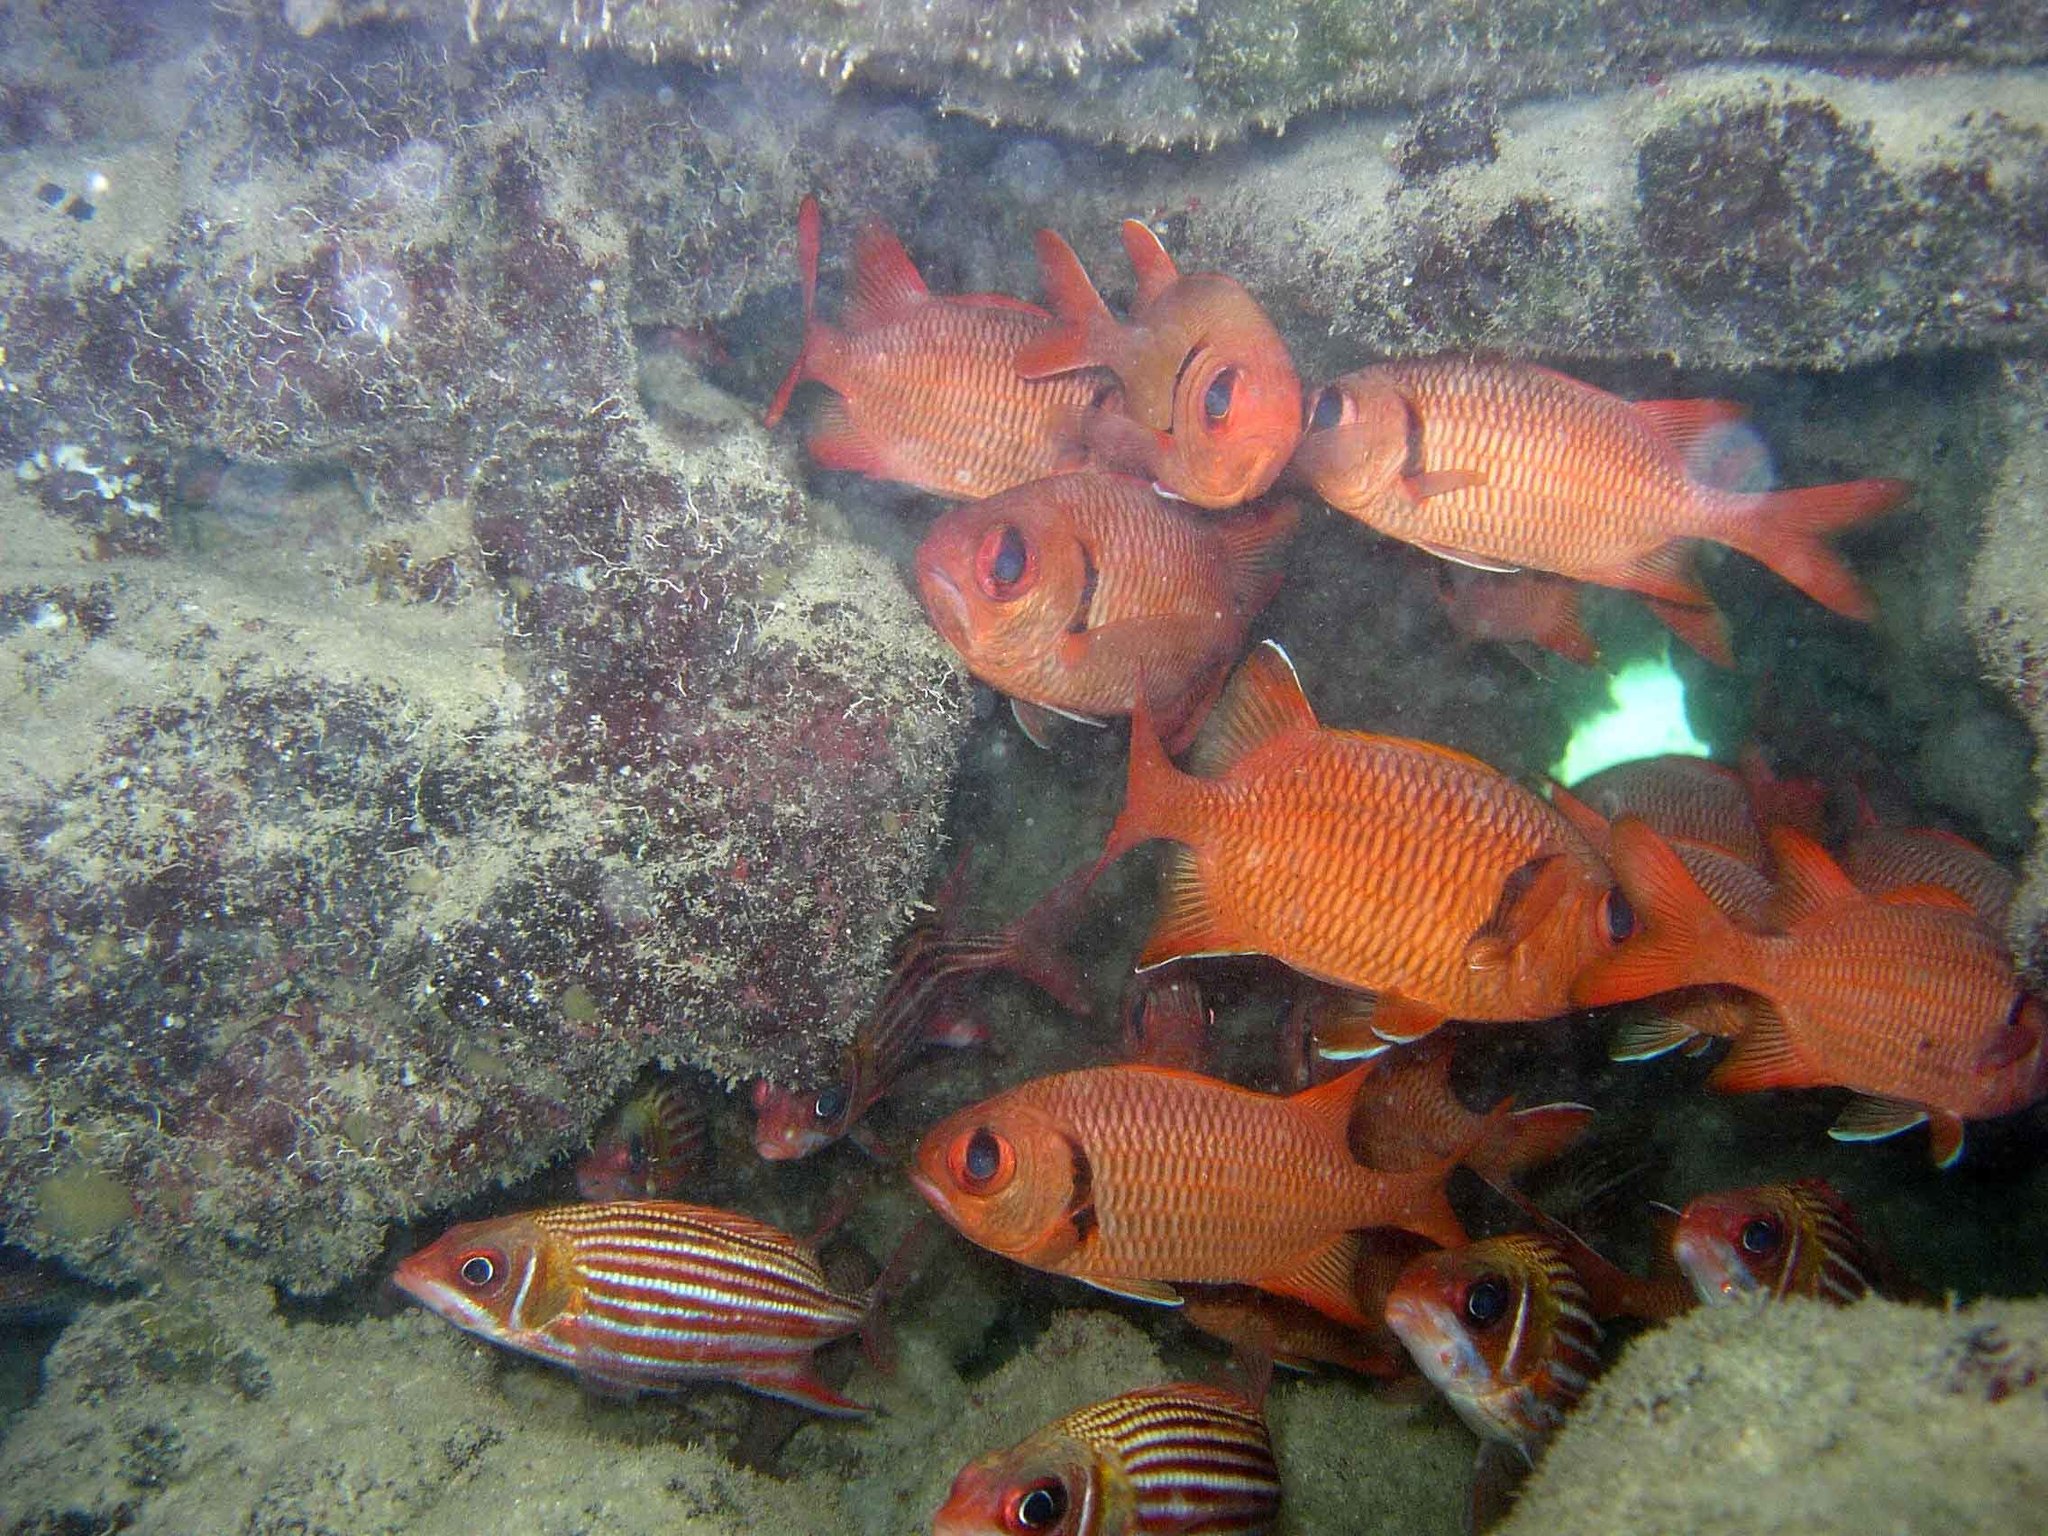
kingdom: Animalia
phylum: Chordata
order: Beryciformes
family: Holocentridae
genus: Myripristis
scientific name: Myripristis berndti
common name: Bigscale soldierfish
